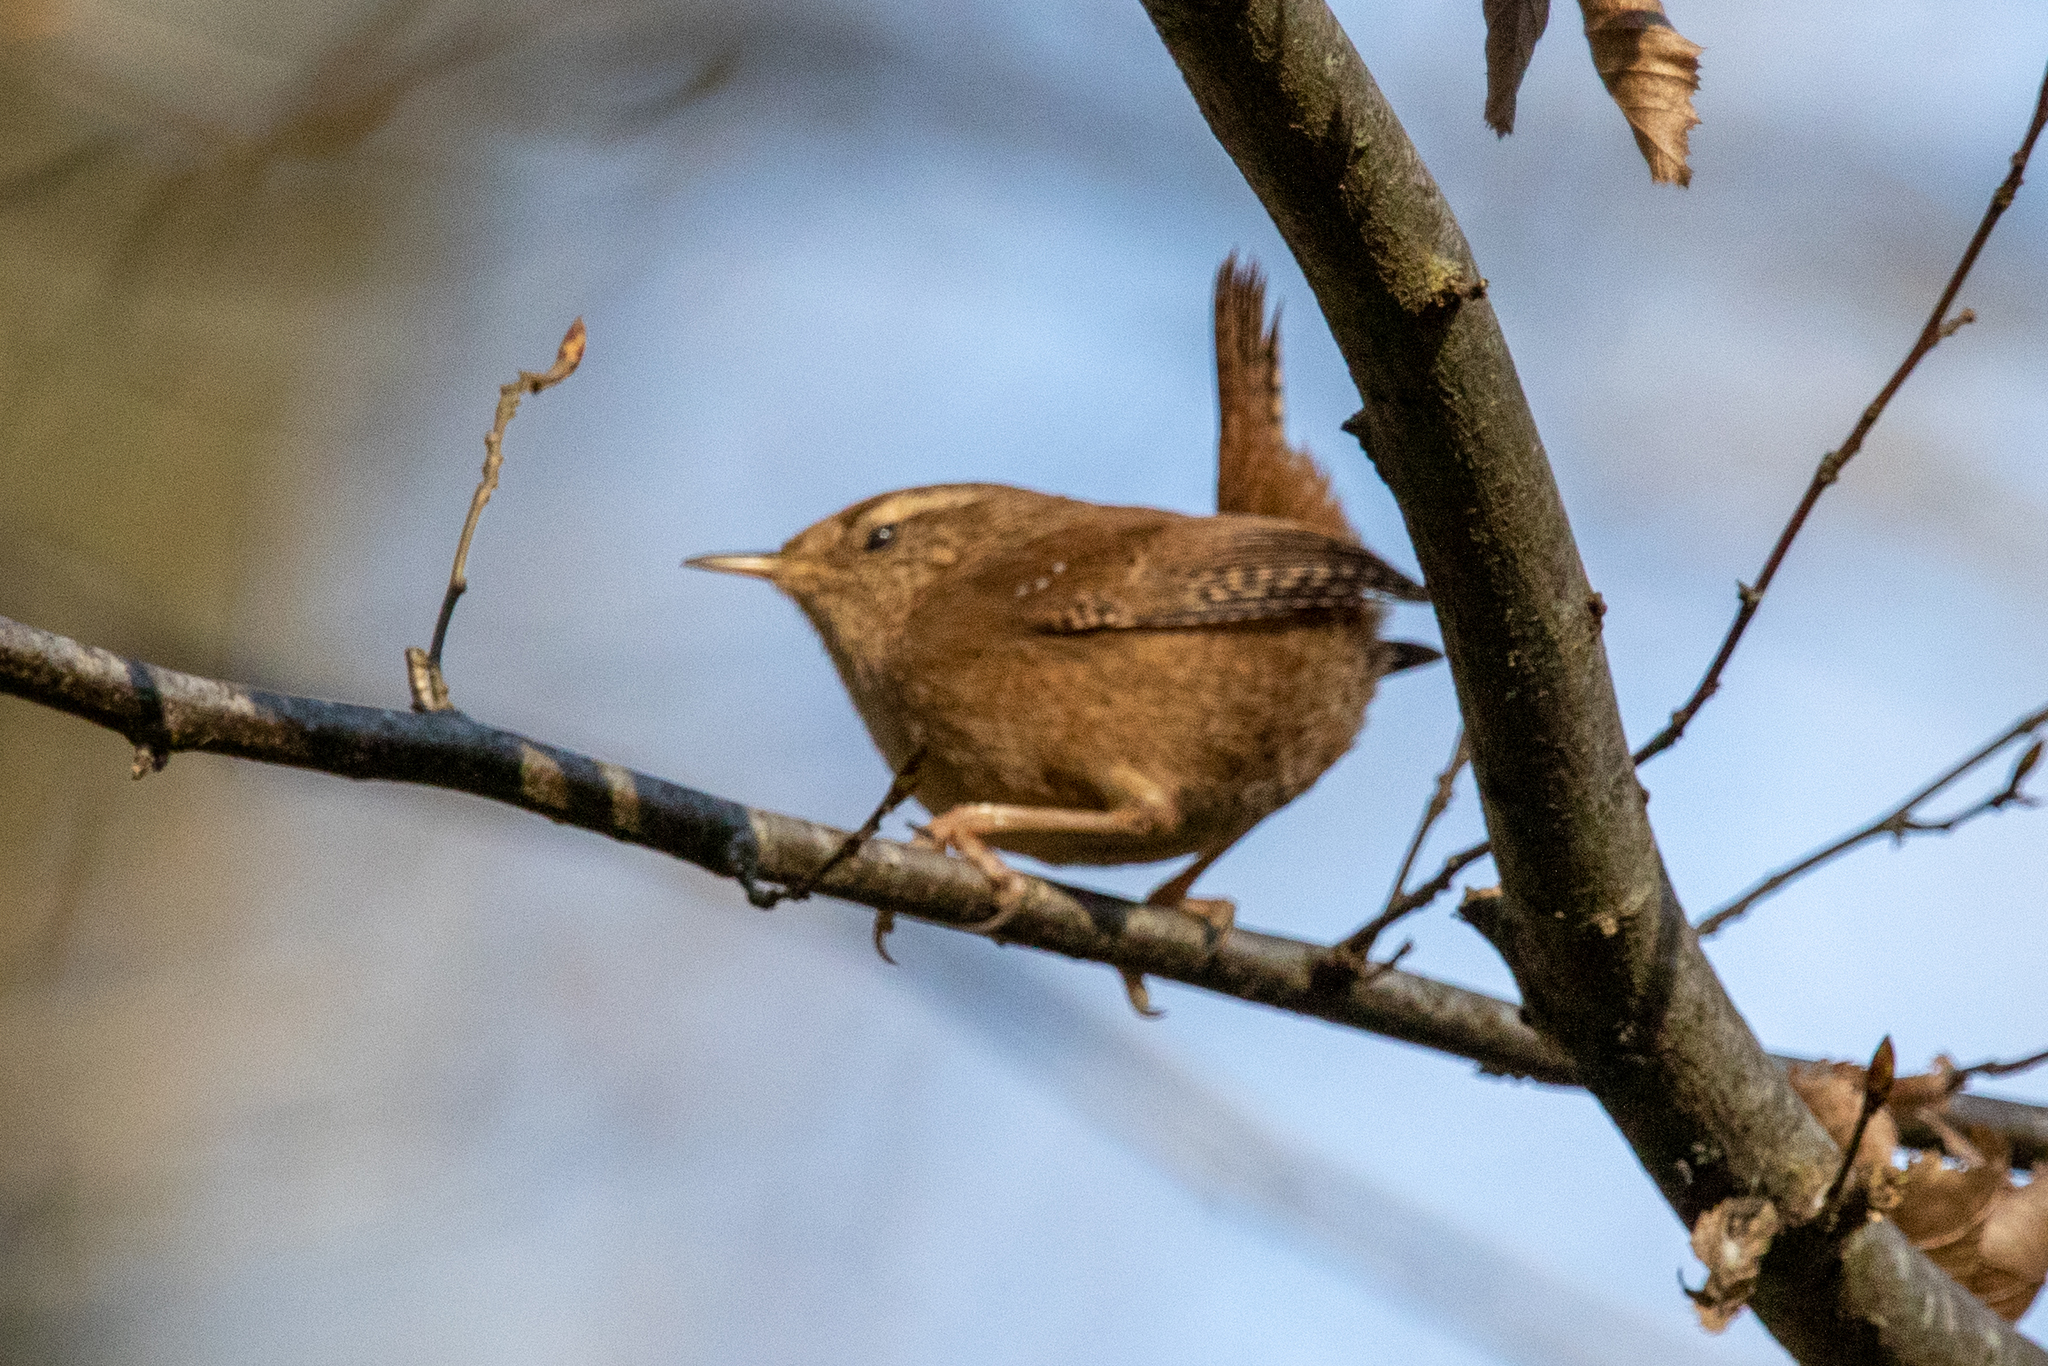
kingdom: Animalia
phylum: Chordata
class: Aves
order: Passeriformes
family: Troglodytidae
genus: Troglodytes
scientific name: Troglodytes troglodytes
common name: Eurasian wren
